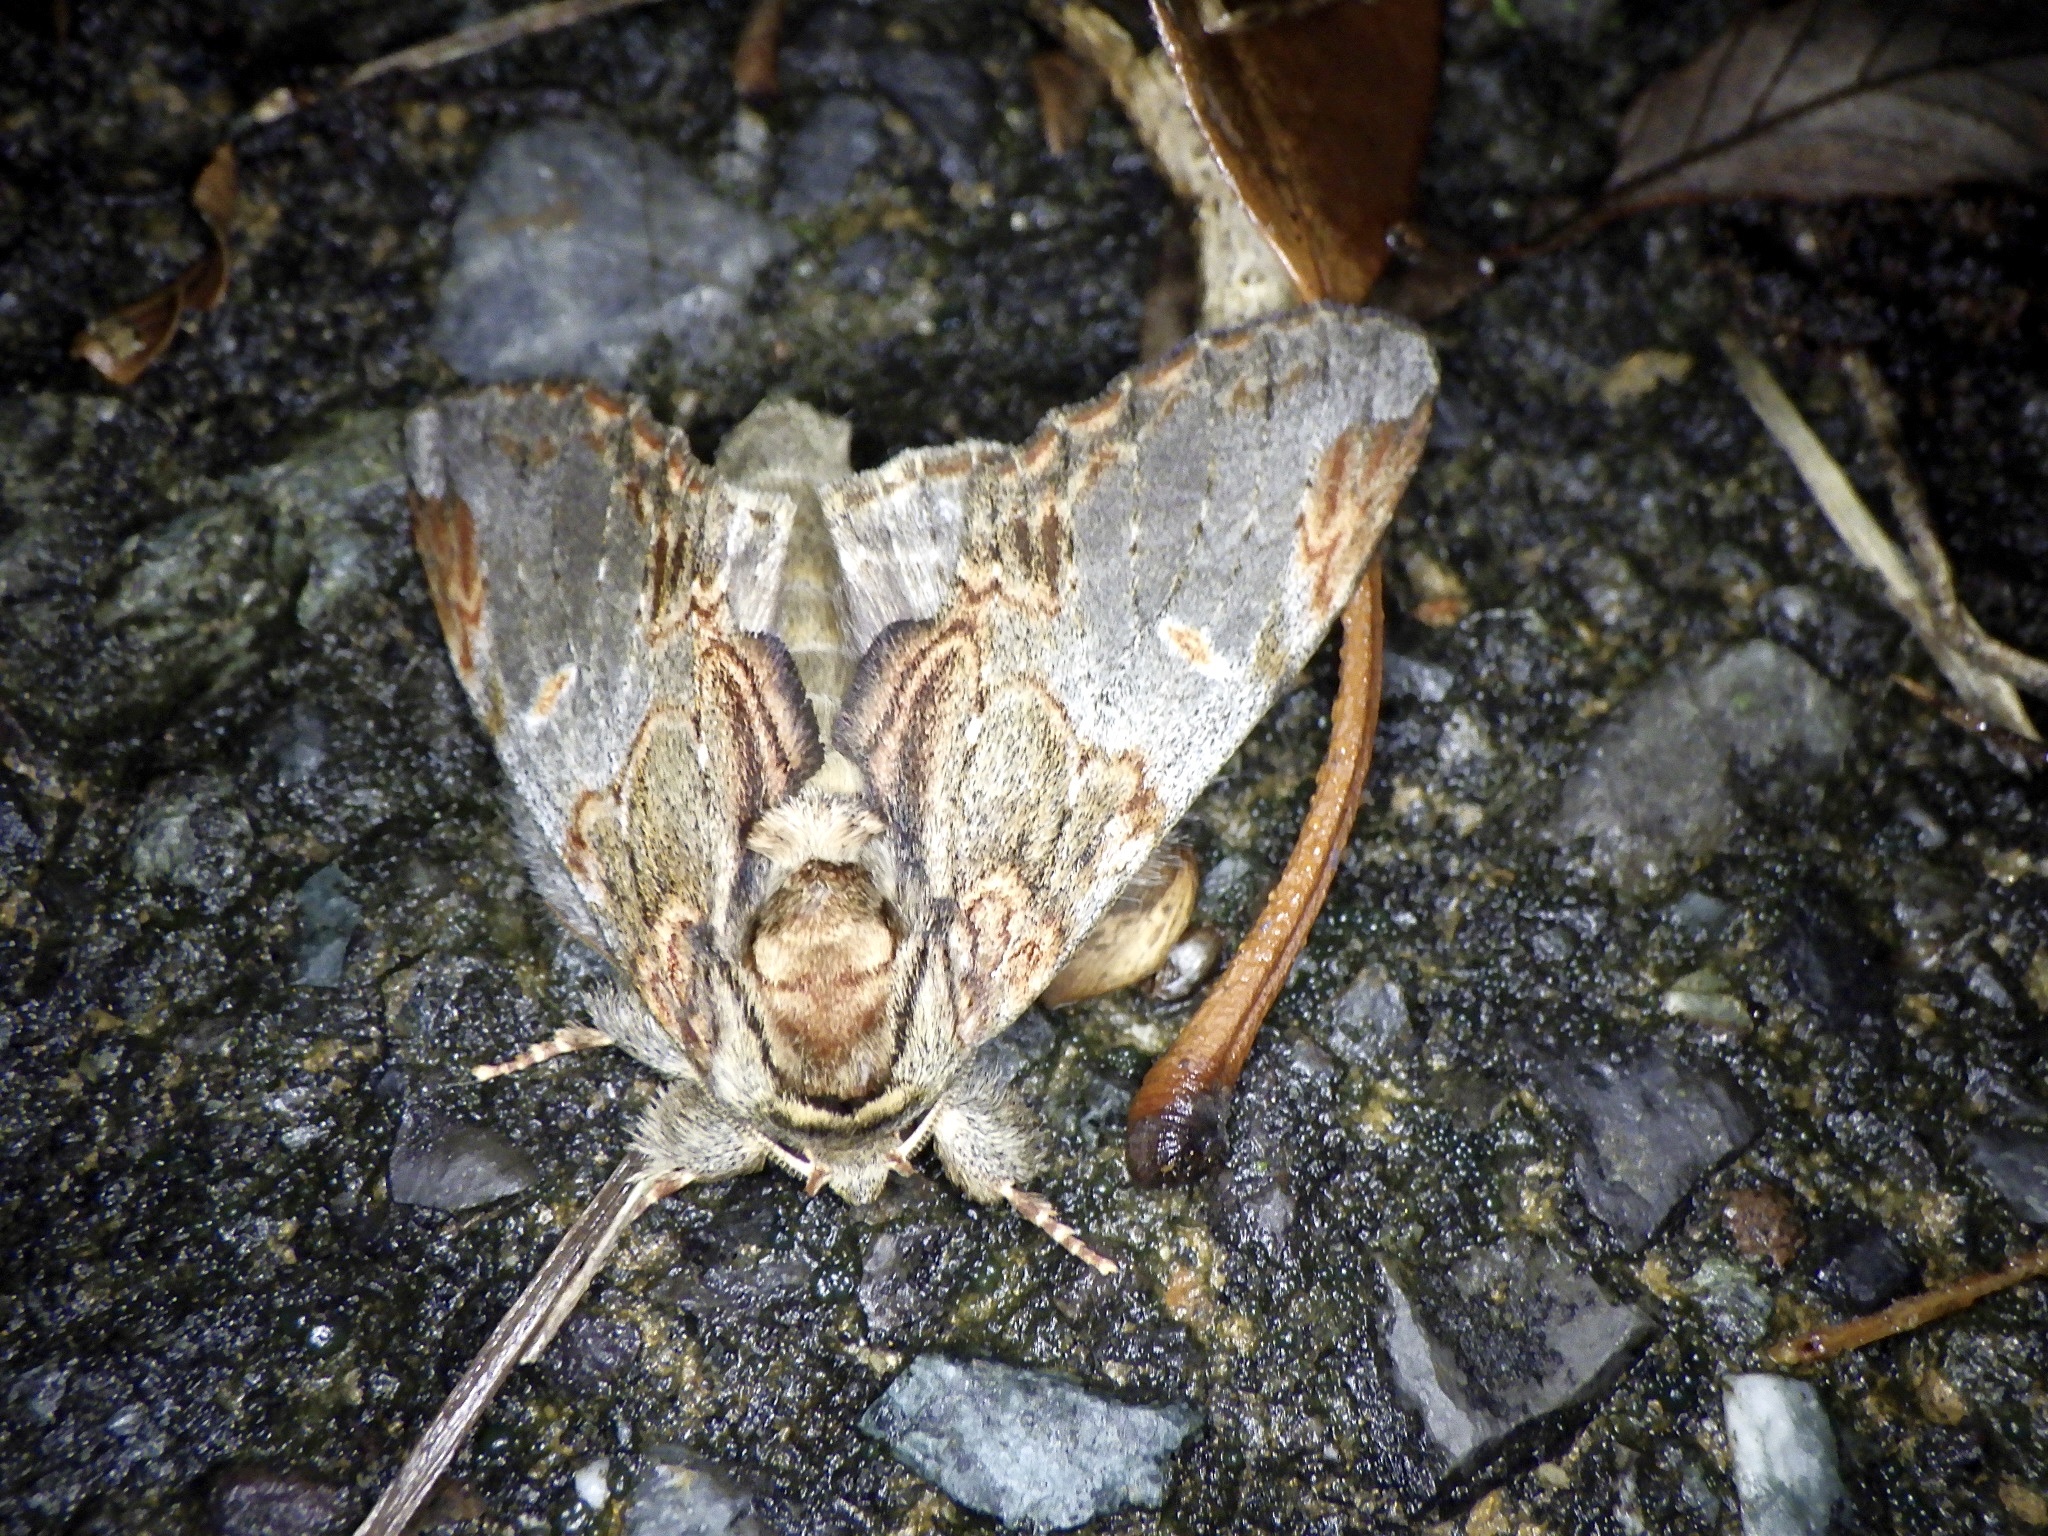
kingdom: Animalia
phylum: Arthropoda
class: Insecta
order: Lepidoptera
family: Notodontidae
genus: Peridea
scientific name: Peridea graeseri
